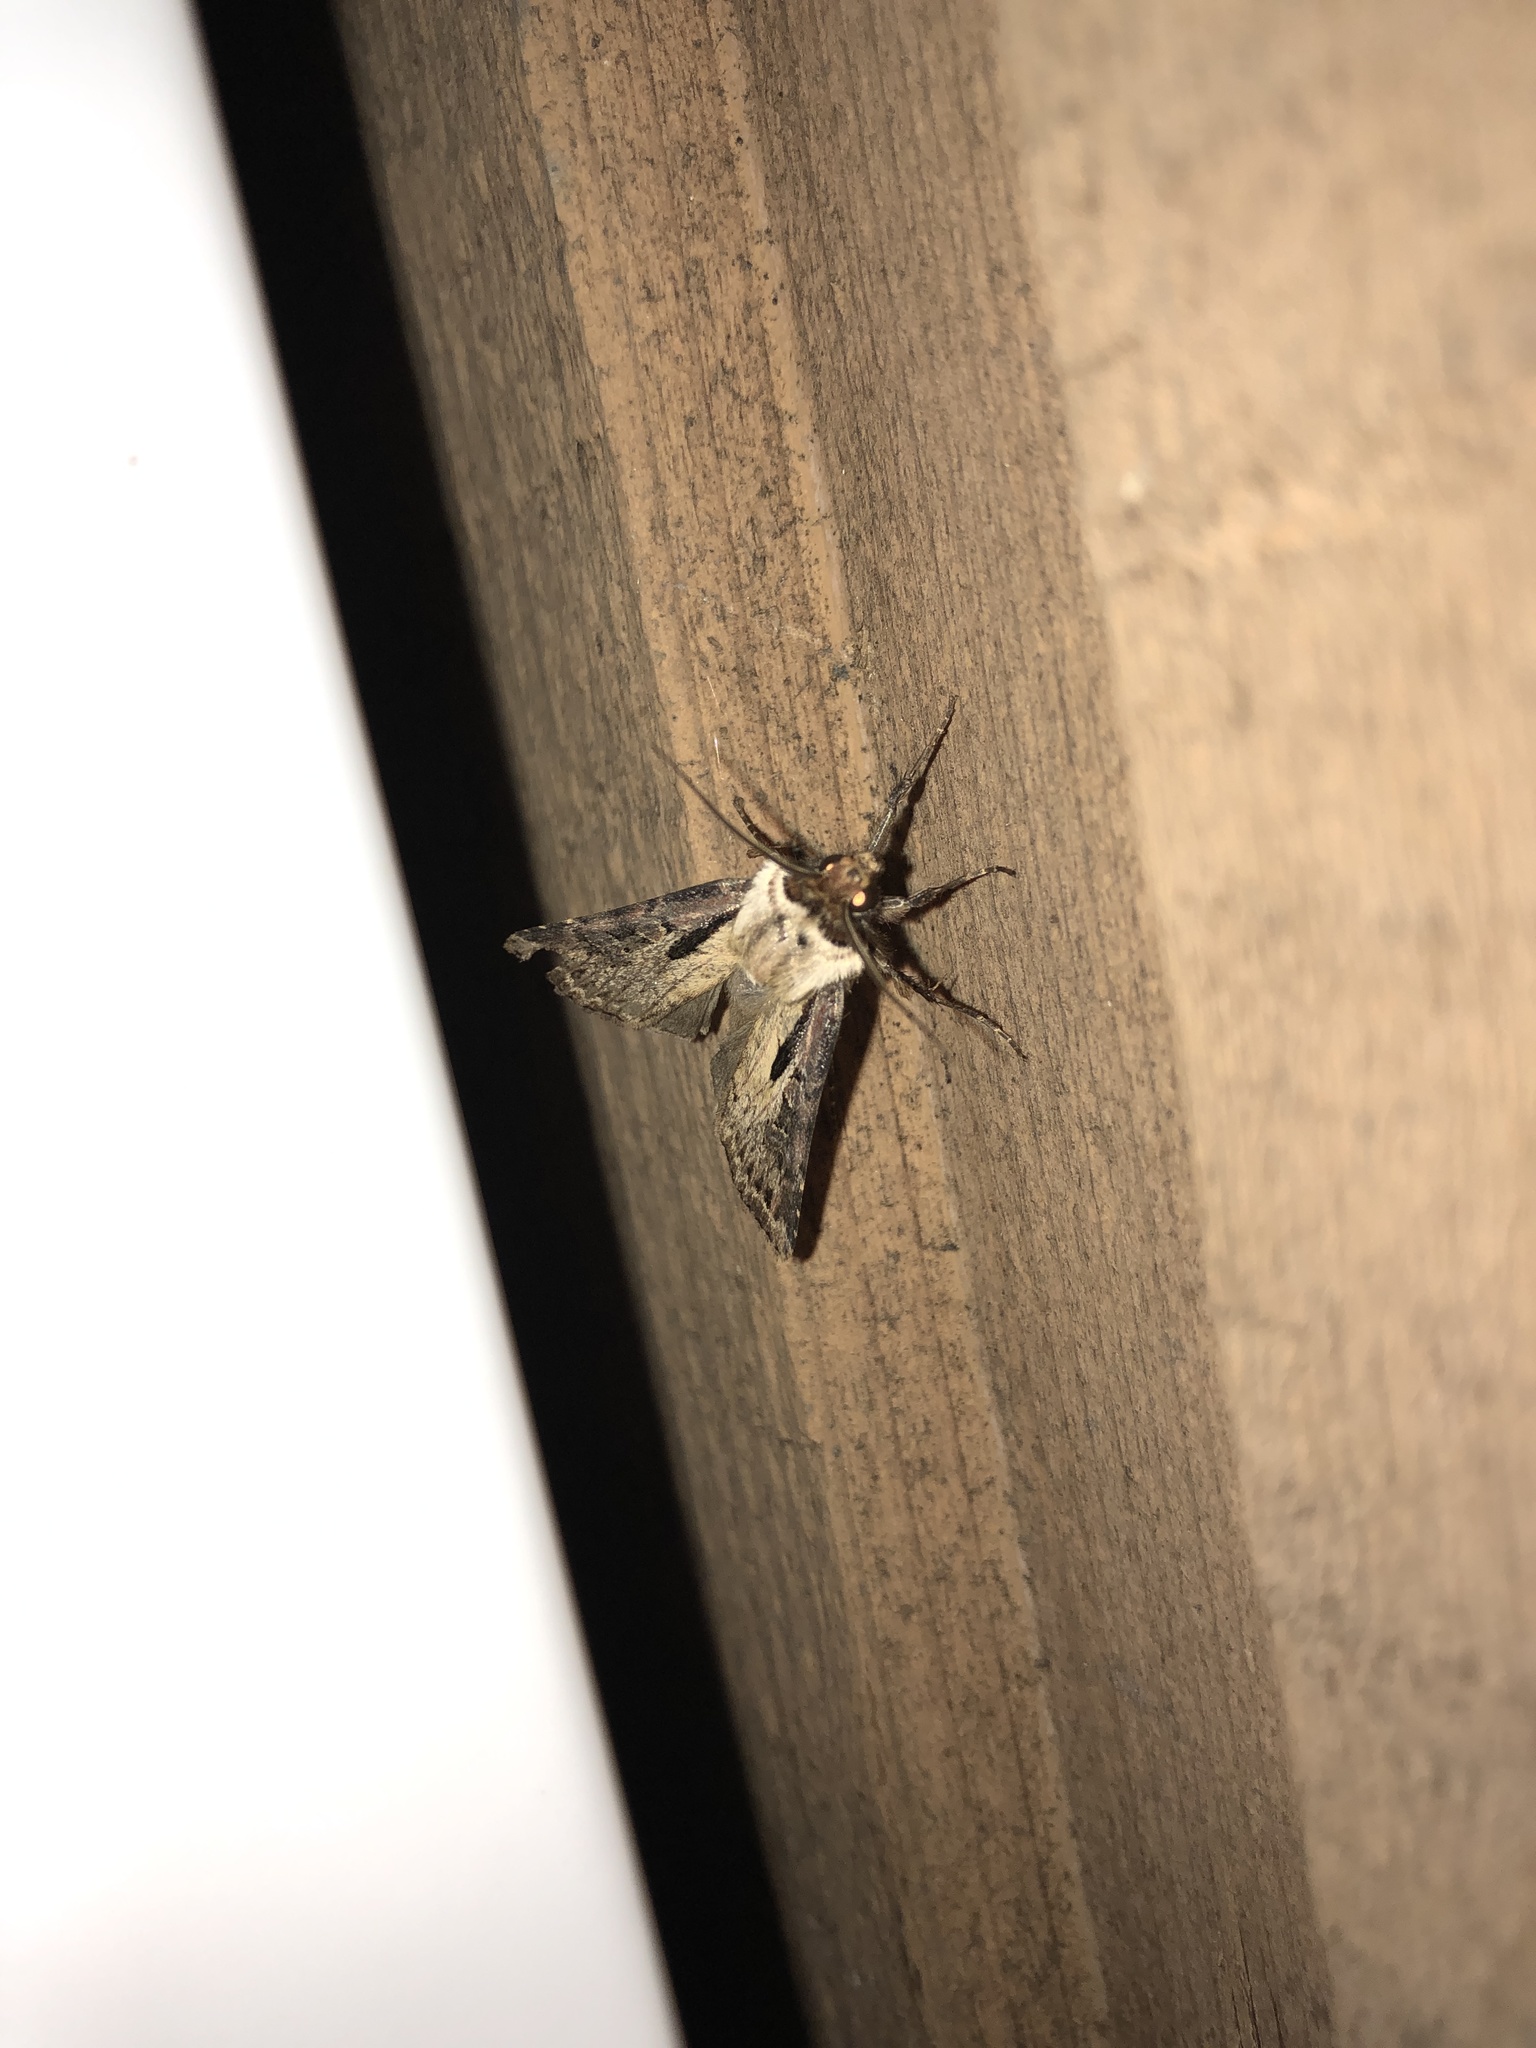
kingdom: Animalia
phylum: Arthropoda
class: Insecta
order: Lepidoptera
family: Noctuidae
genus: Agrotis
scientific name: Agrotis vancouverensis
